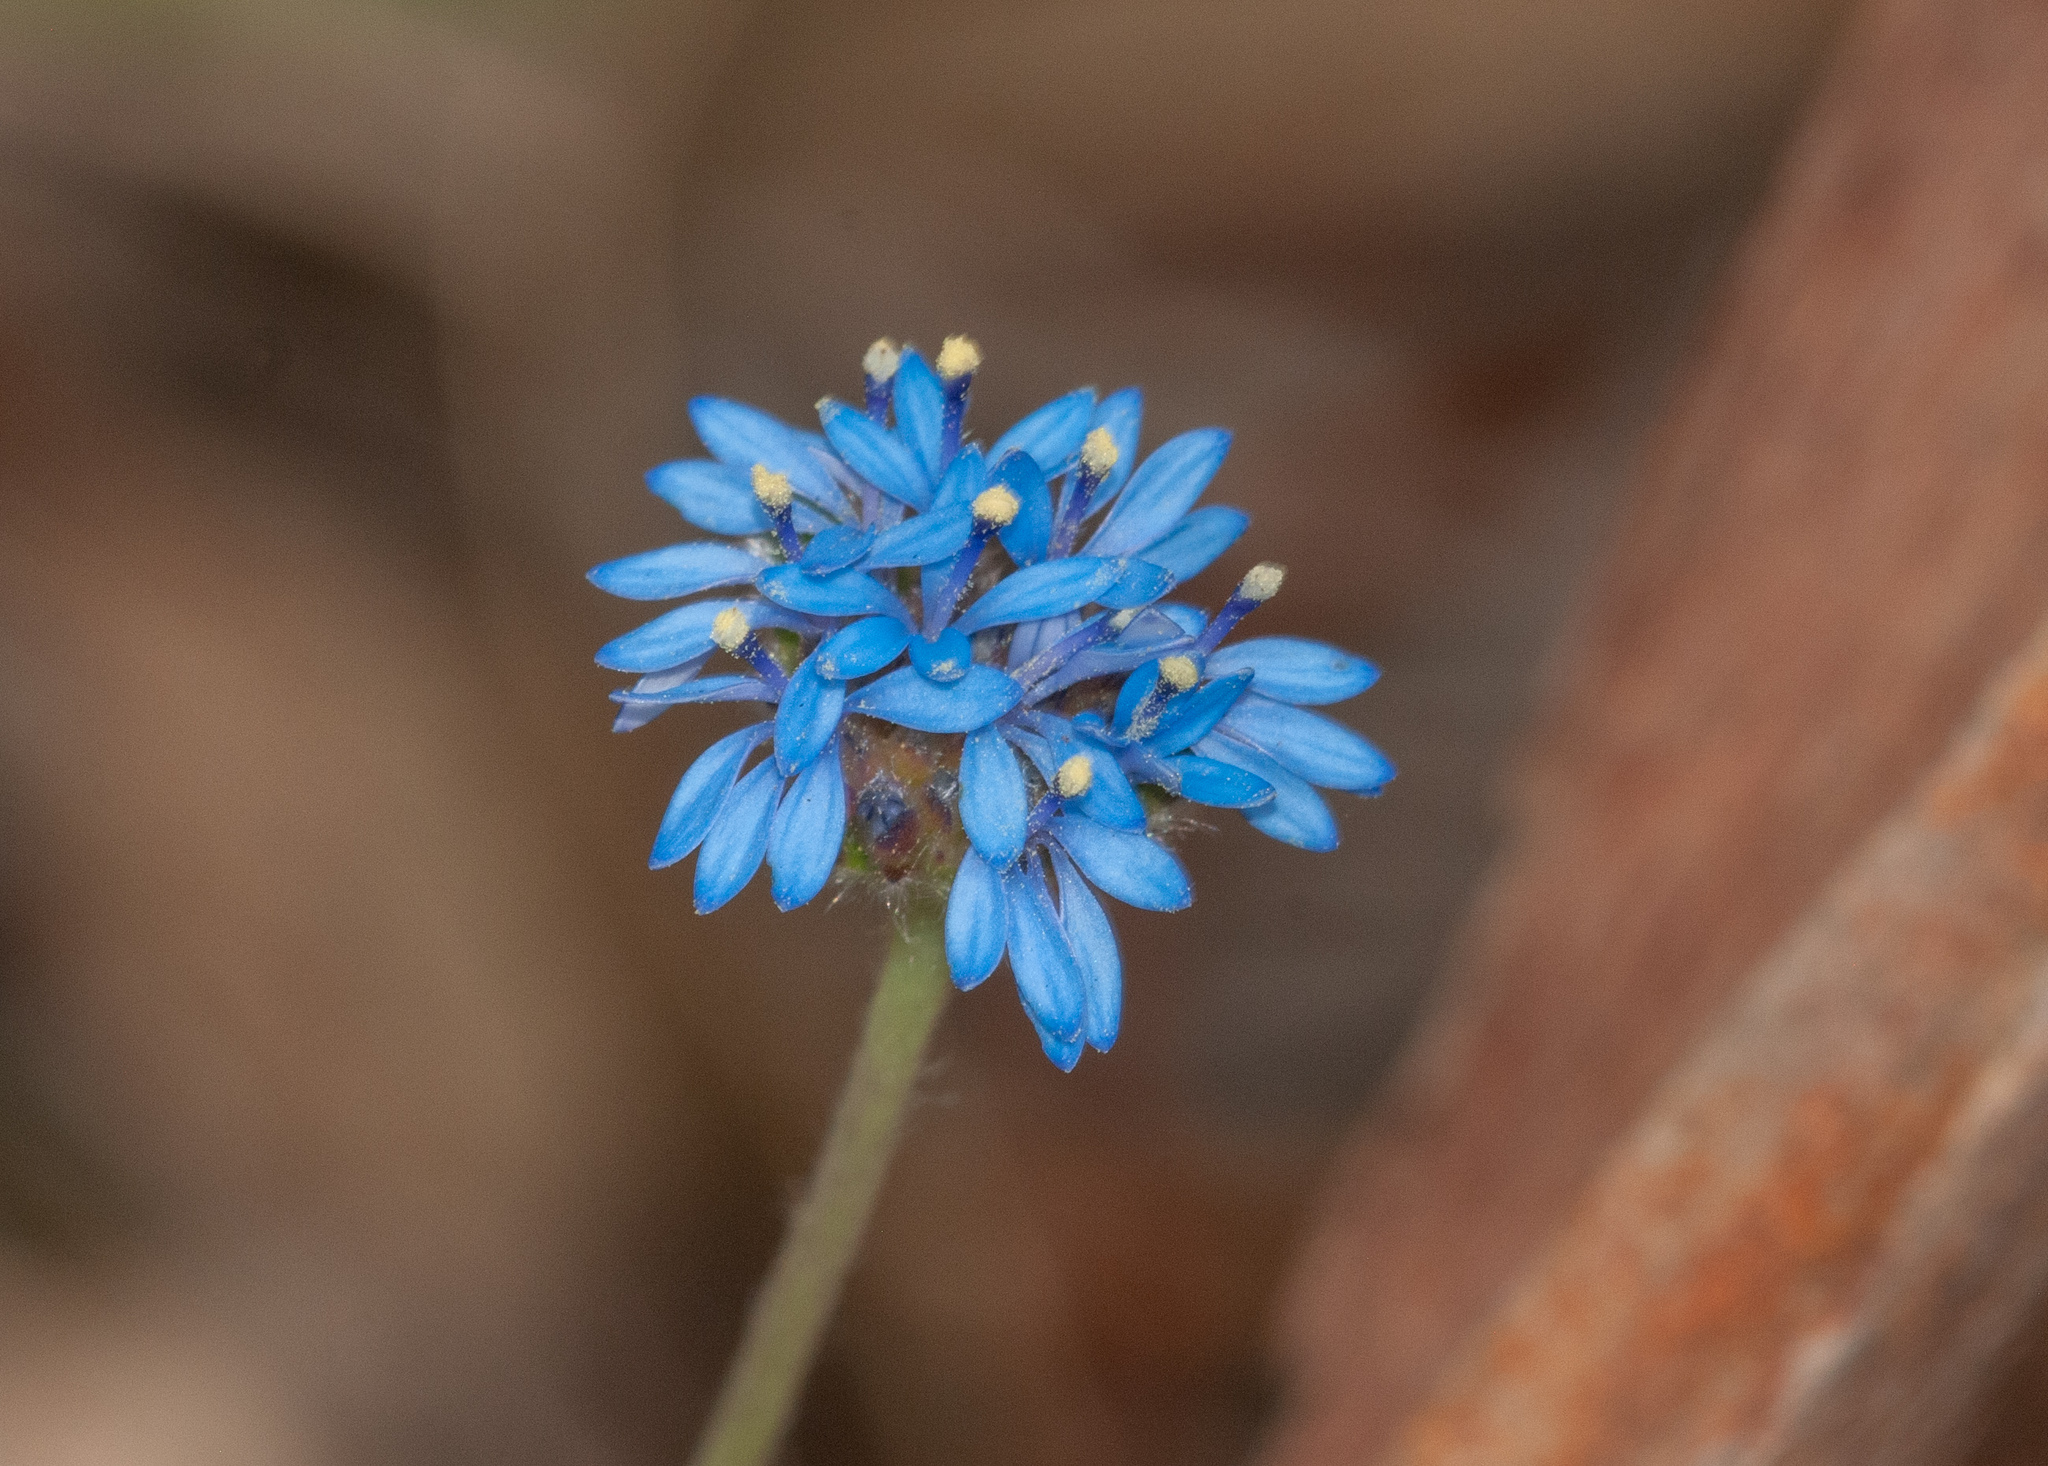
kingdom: Plantae
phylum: Tracheophyta
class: Magnoliopsida
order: Asterales
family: Goodeniaceae
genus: Brunonia
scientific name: Brunonia australis
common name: Blue pincushion
